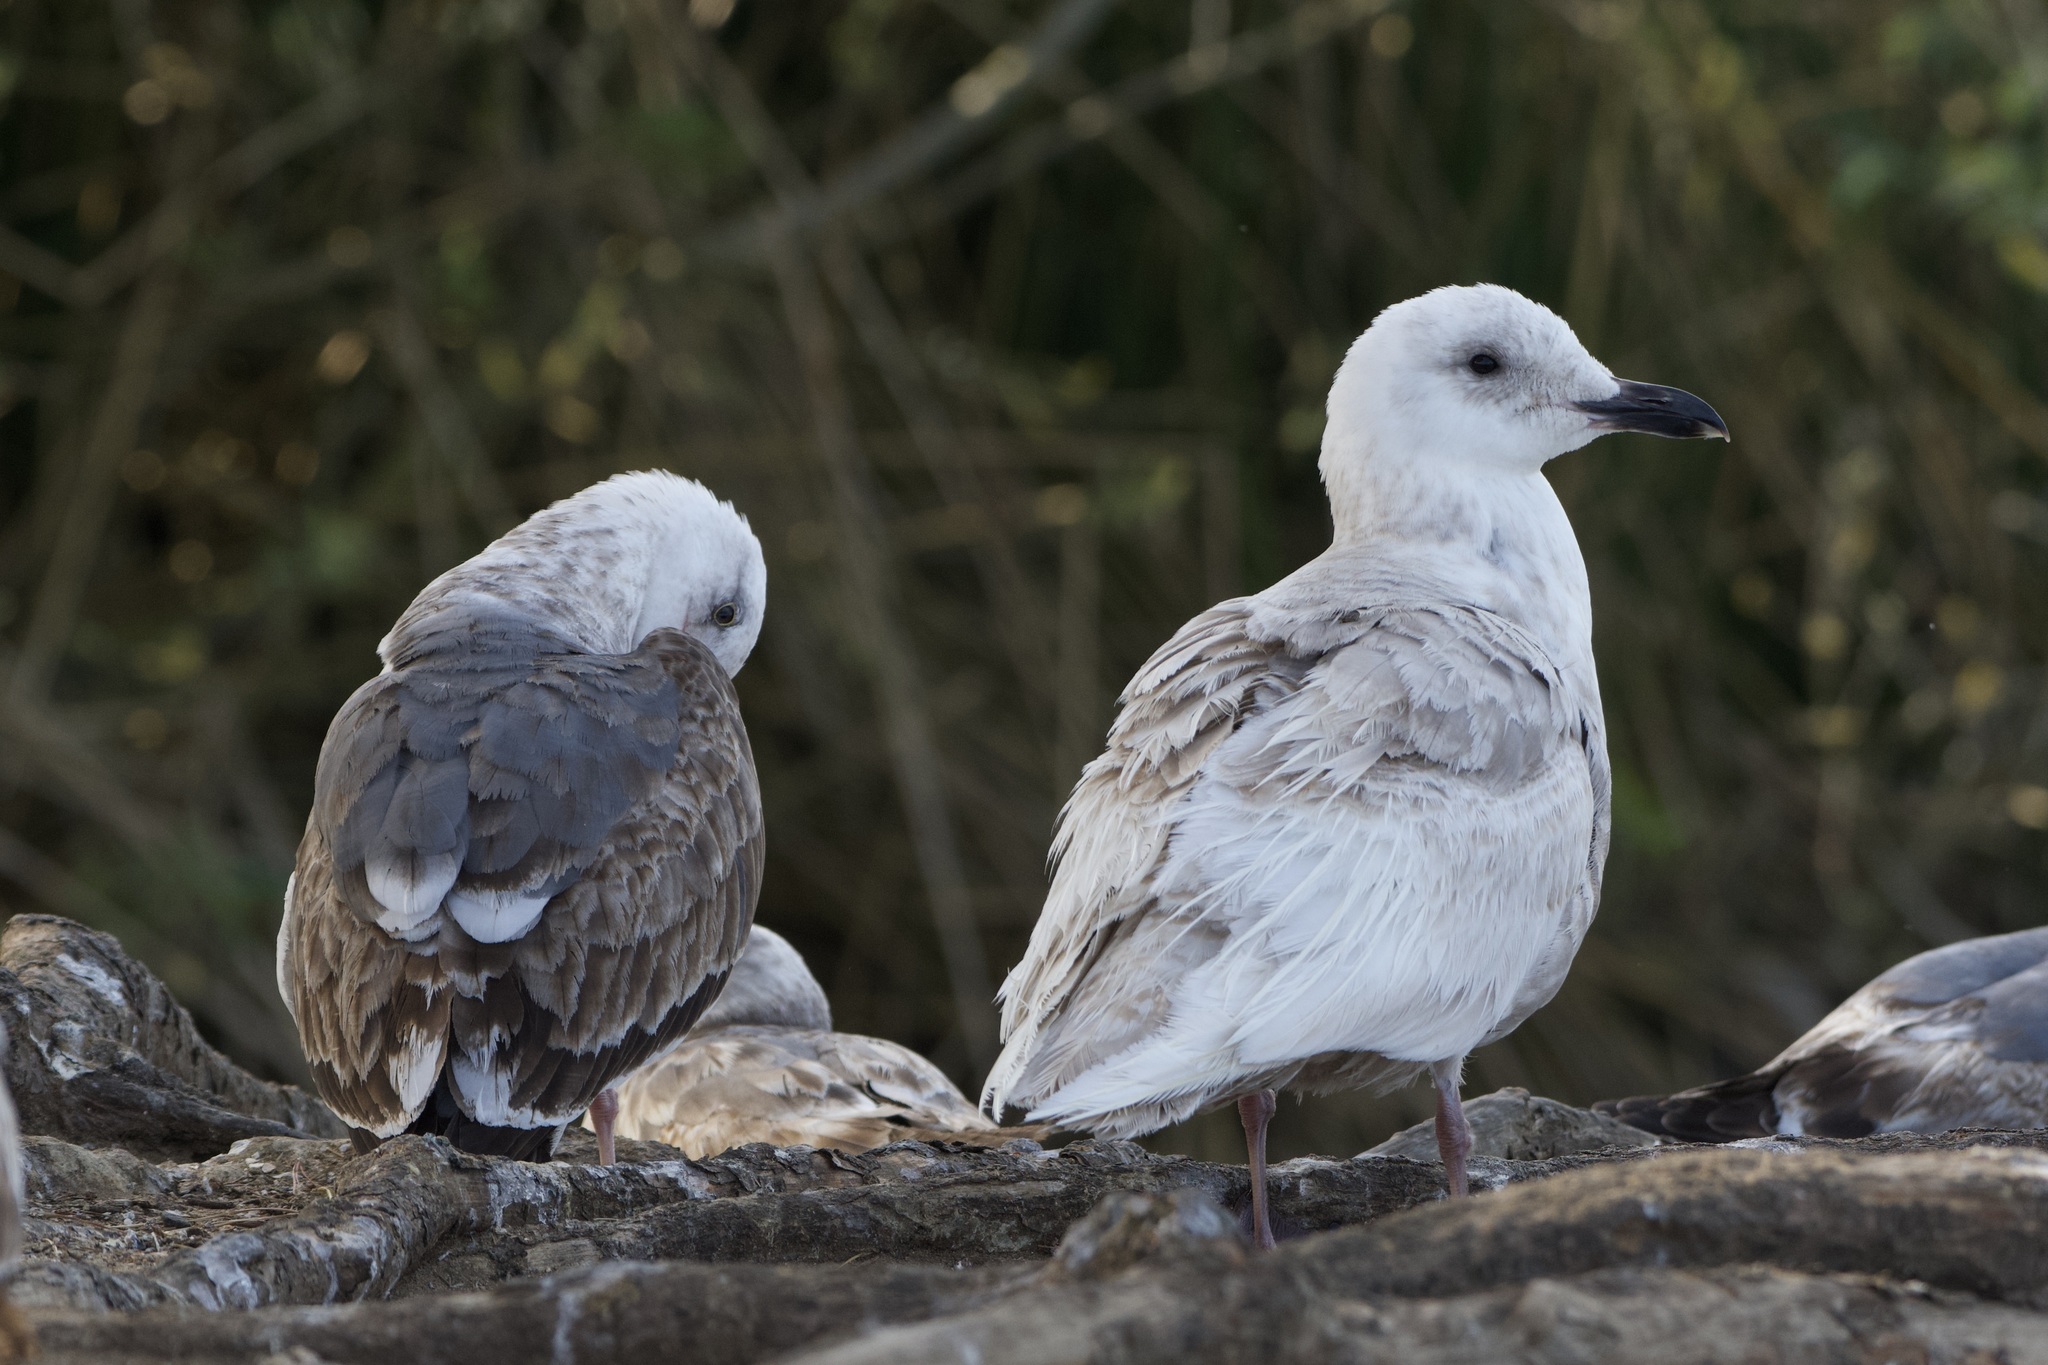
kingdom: Animalia
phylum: Chordata
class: Aves
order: Charadriiformes
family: Laridae
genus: Larus
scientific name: Larus glaucescens
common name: Glaucous-winged gull
